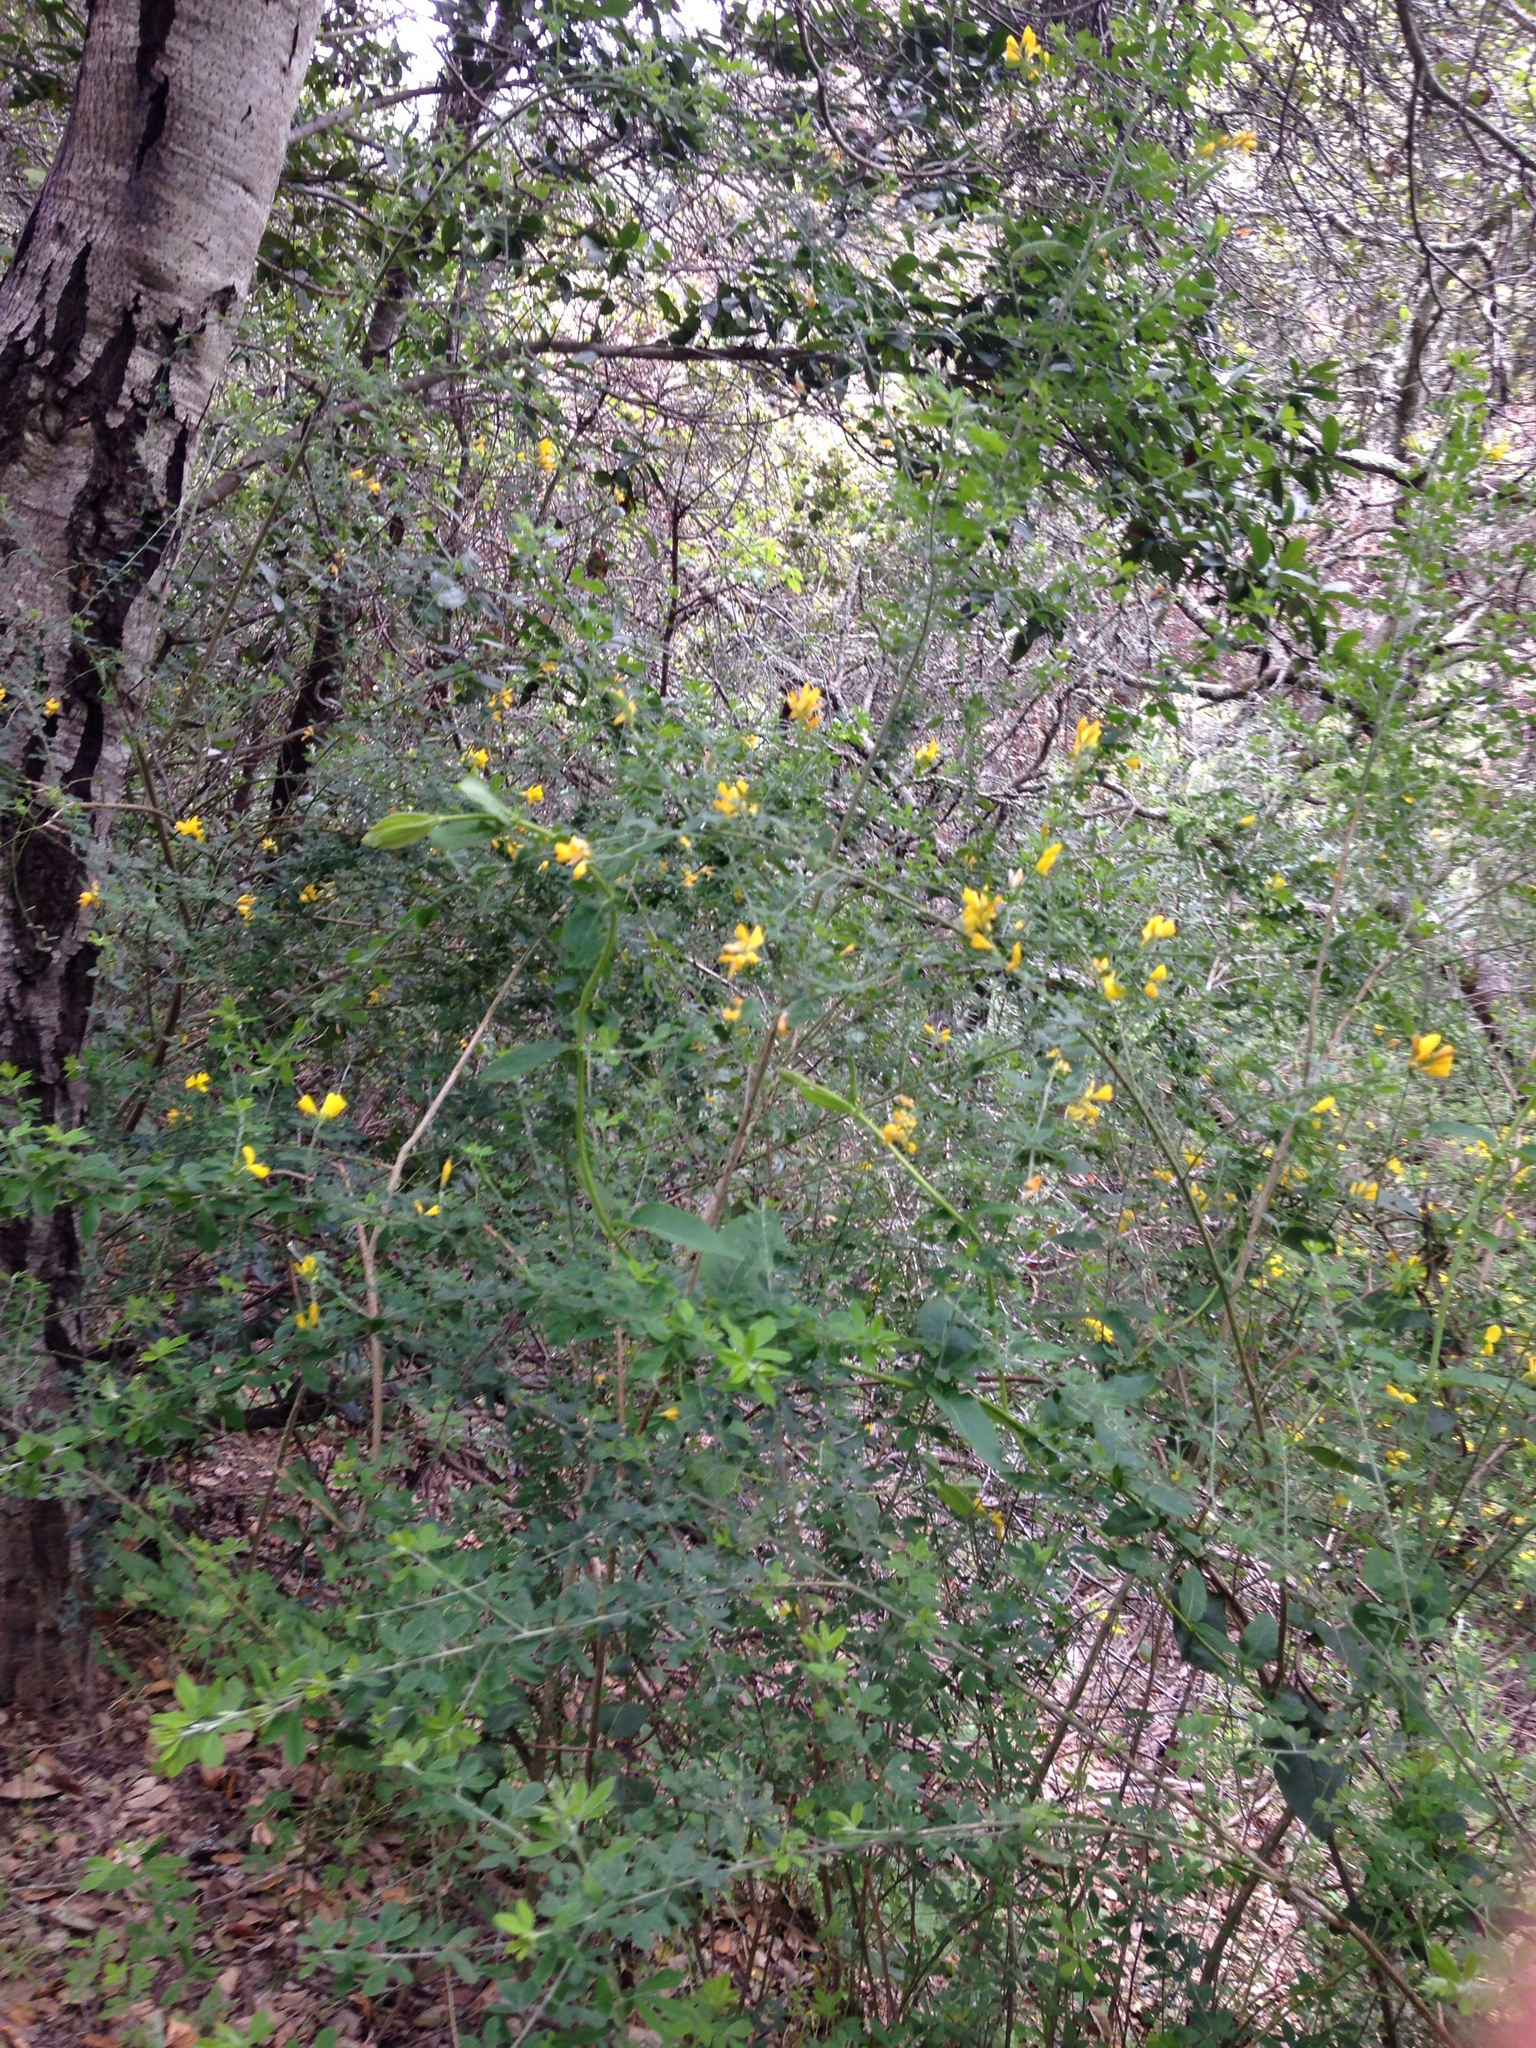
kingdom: Plantae
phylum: Tracheophyta
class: Magnoliopsida
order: Fabales
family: Fabaceae
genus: Genista
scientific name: Genista monspessulana
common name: Montpellier broom
